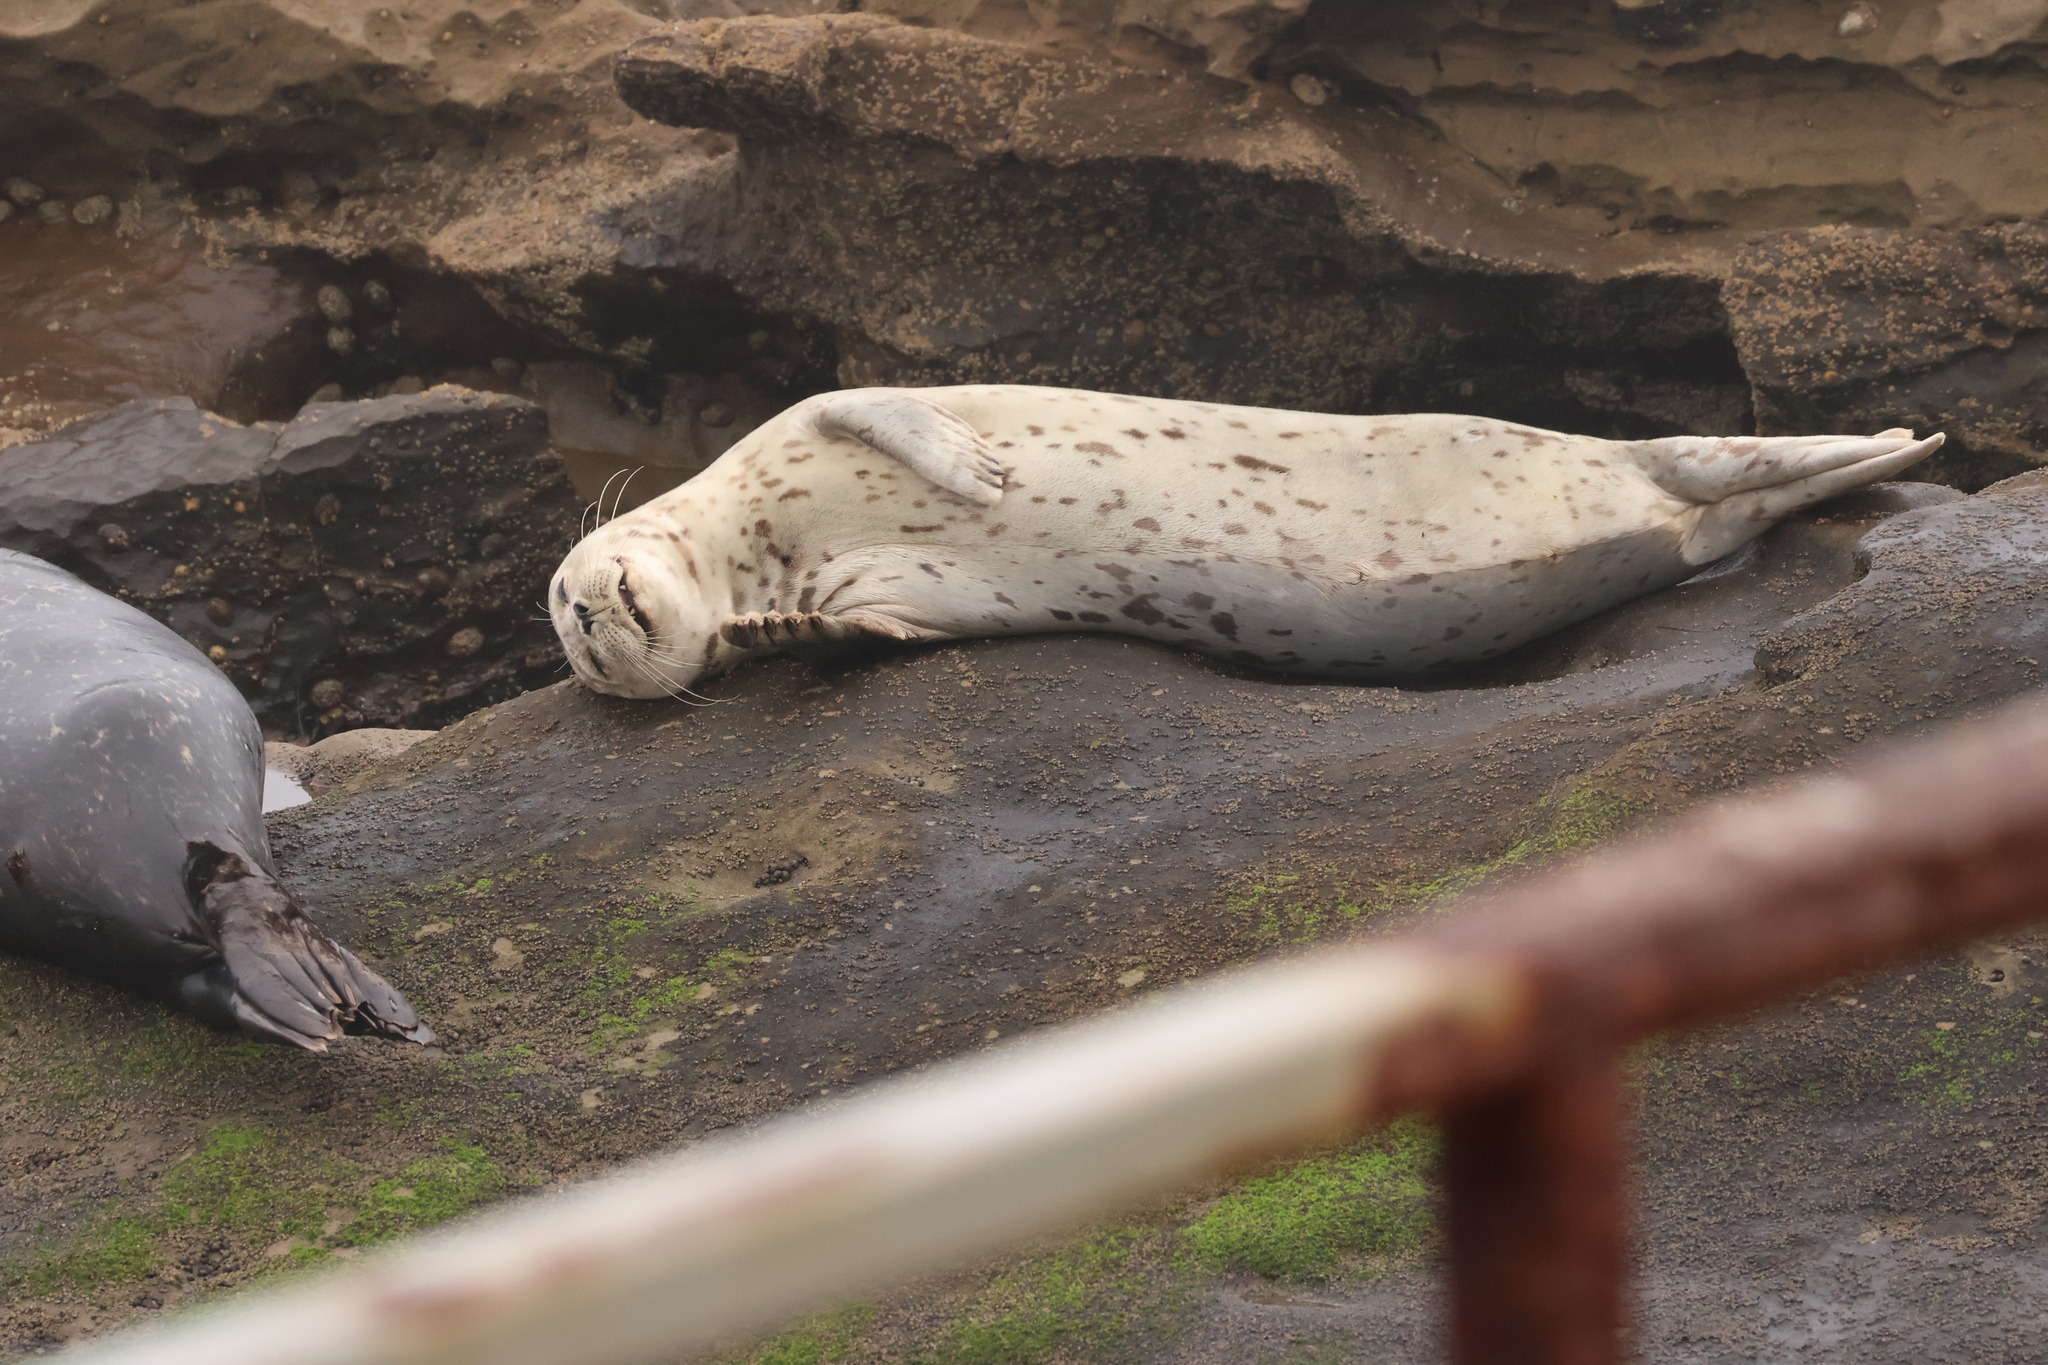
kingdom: Animalia
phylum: Chordata
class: Mammalia
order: Carnivora
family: Phocidae
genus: Phoca
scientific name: Phoca vitulina
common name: Harbor seal
